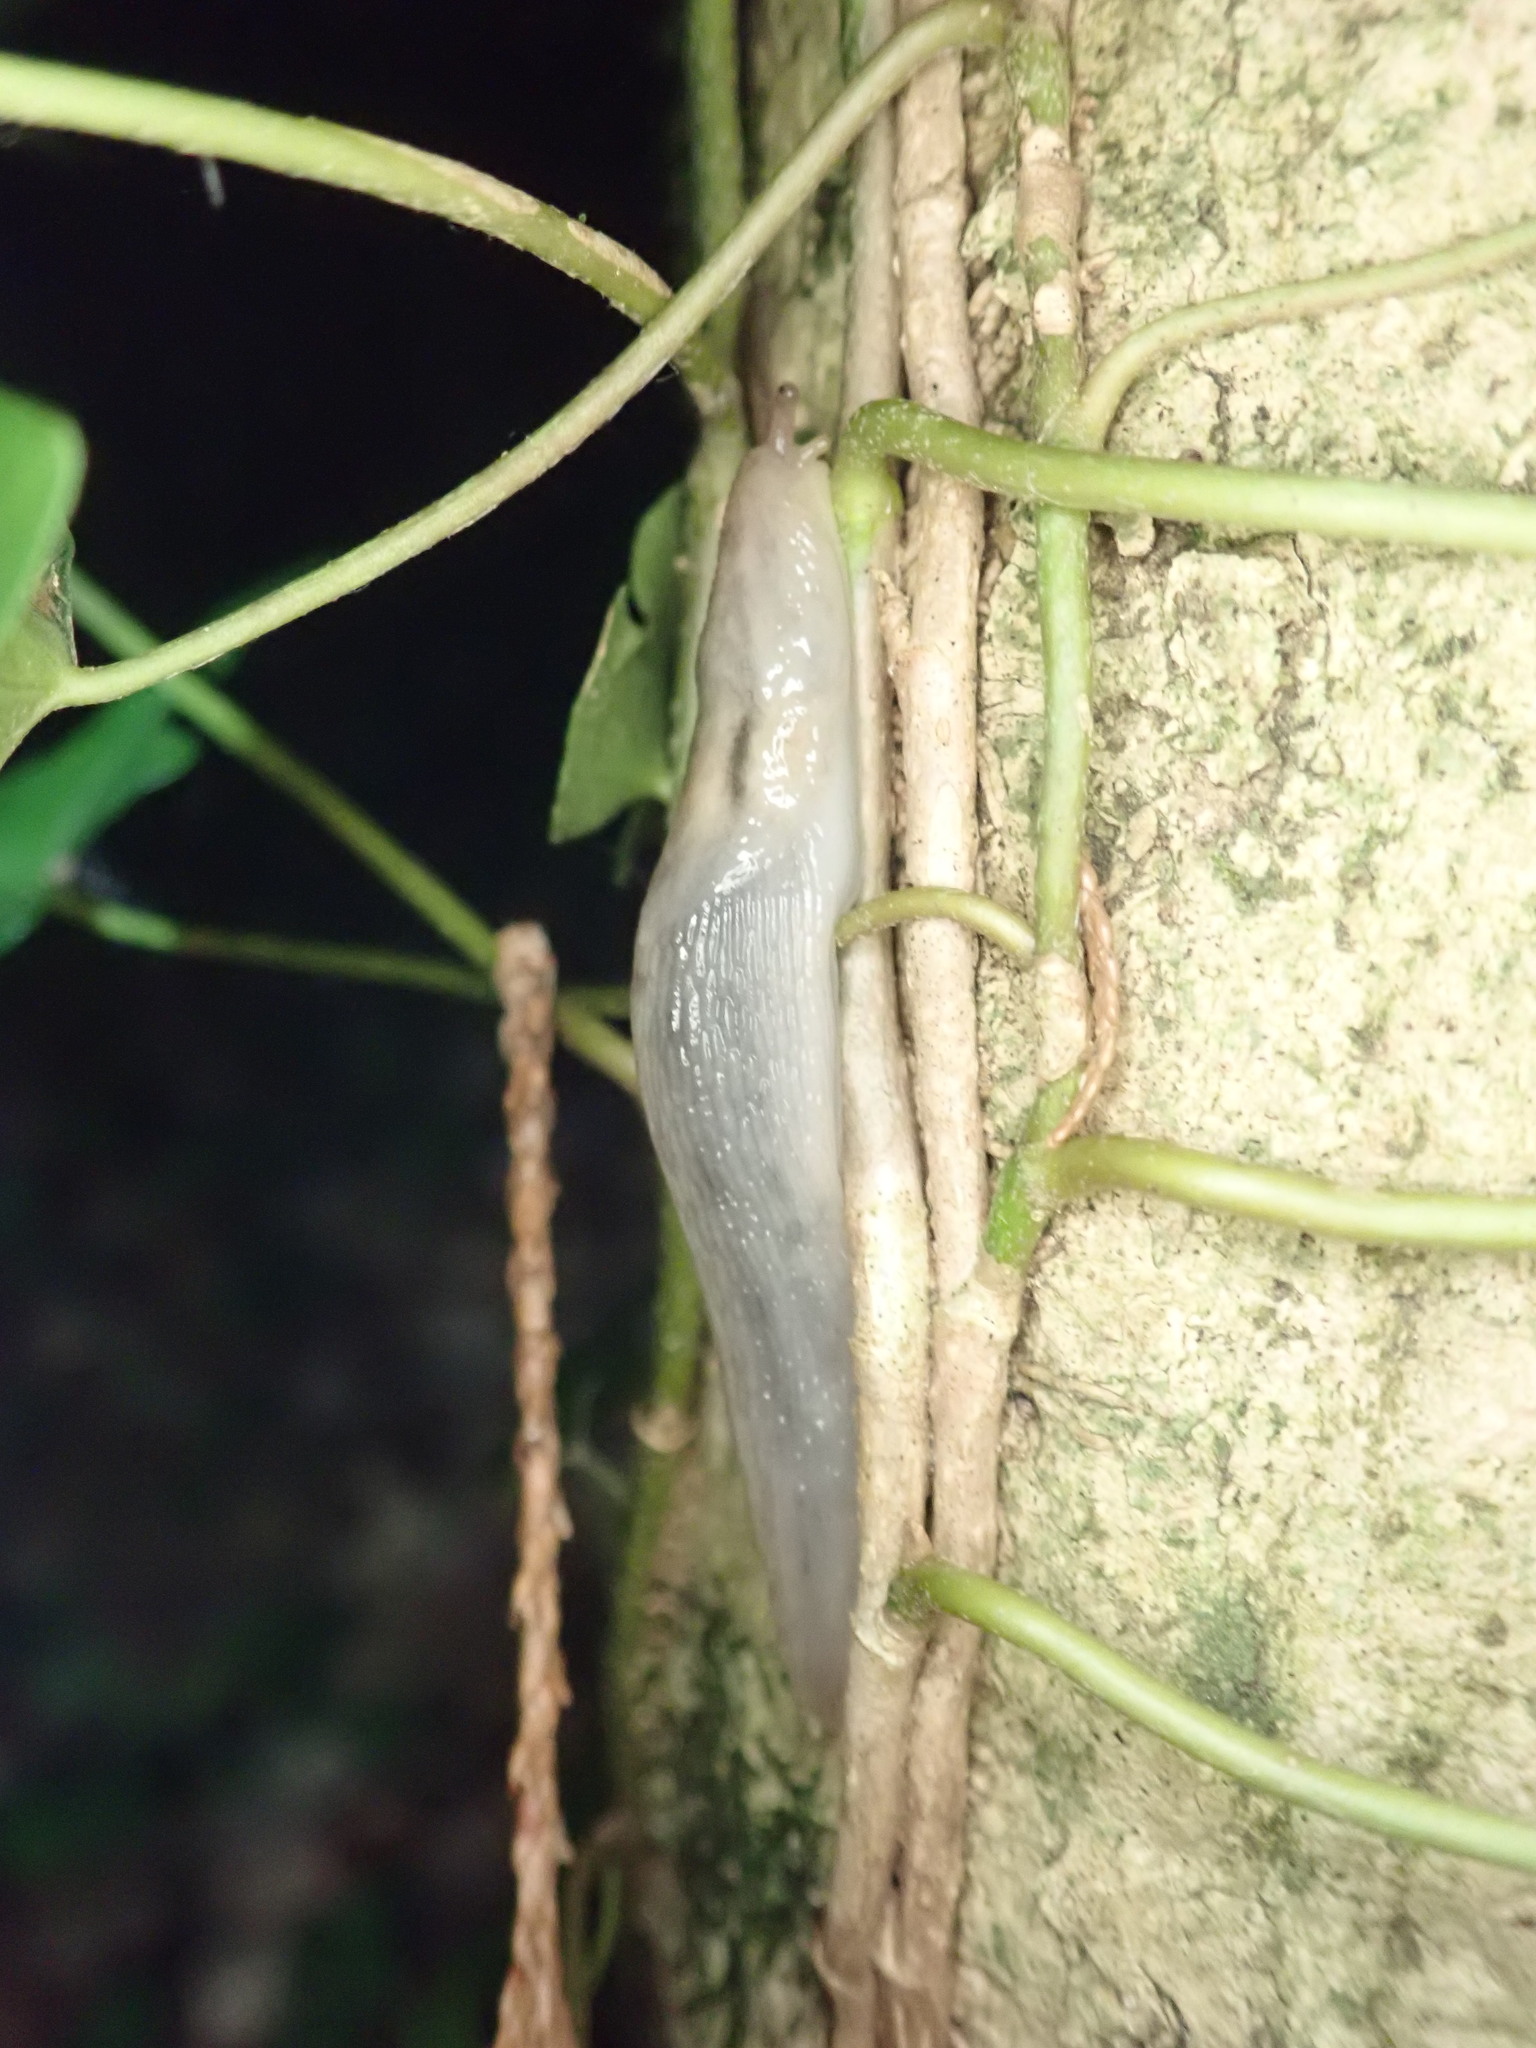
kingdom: Animalia
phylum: Mollusca
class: Gastropoda
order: Stylommatophora
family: Limacidae
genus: Lehmannia
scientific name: Lehmannia marginata
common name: Tree slug
